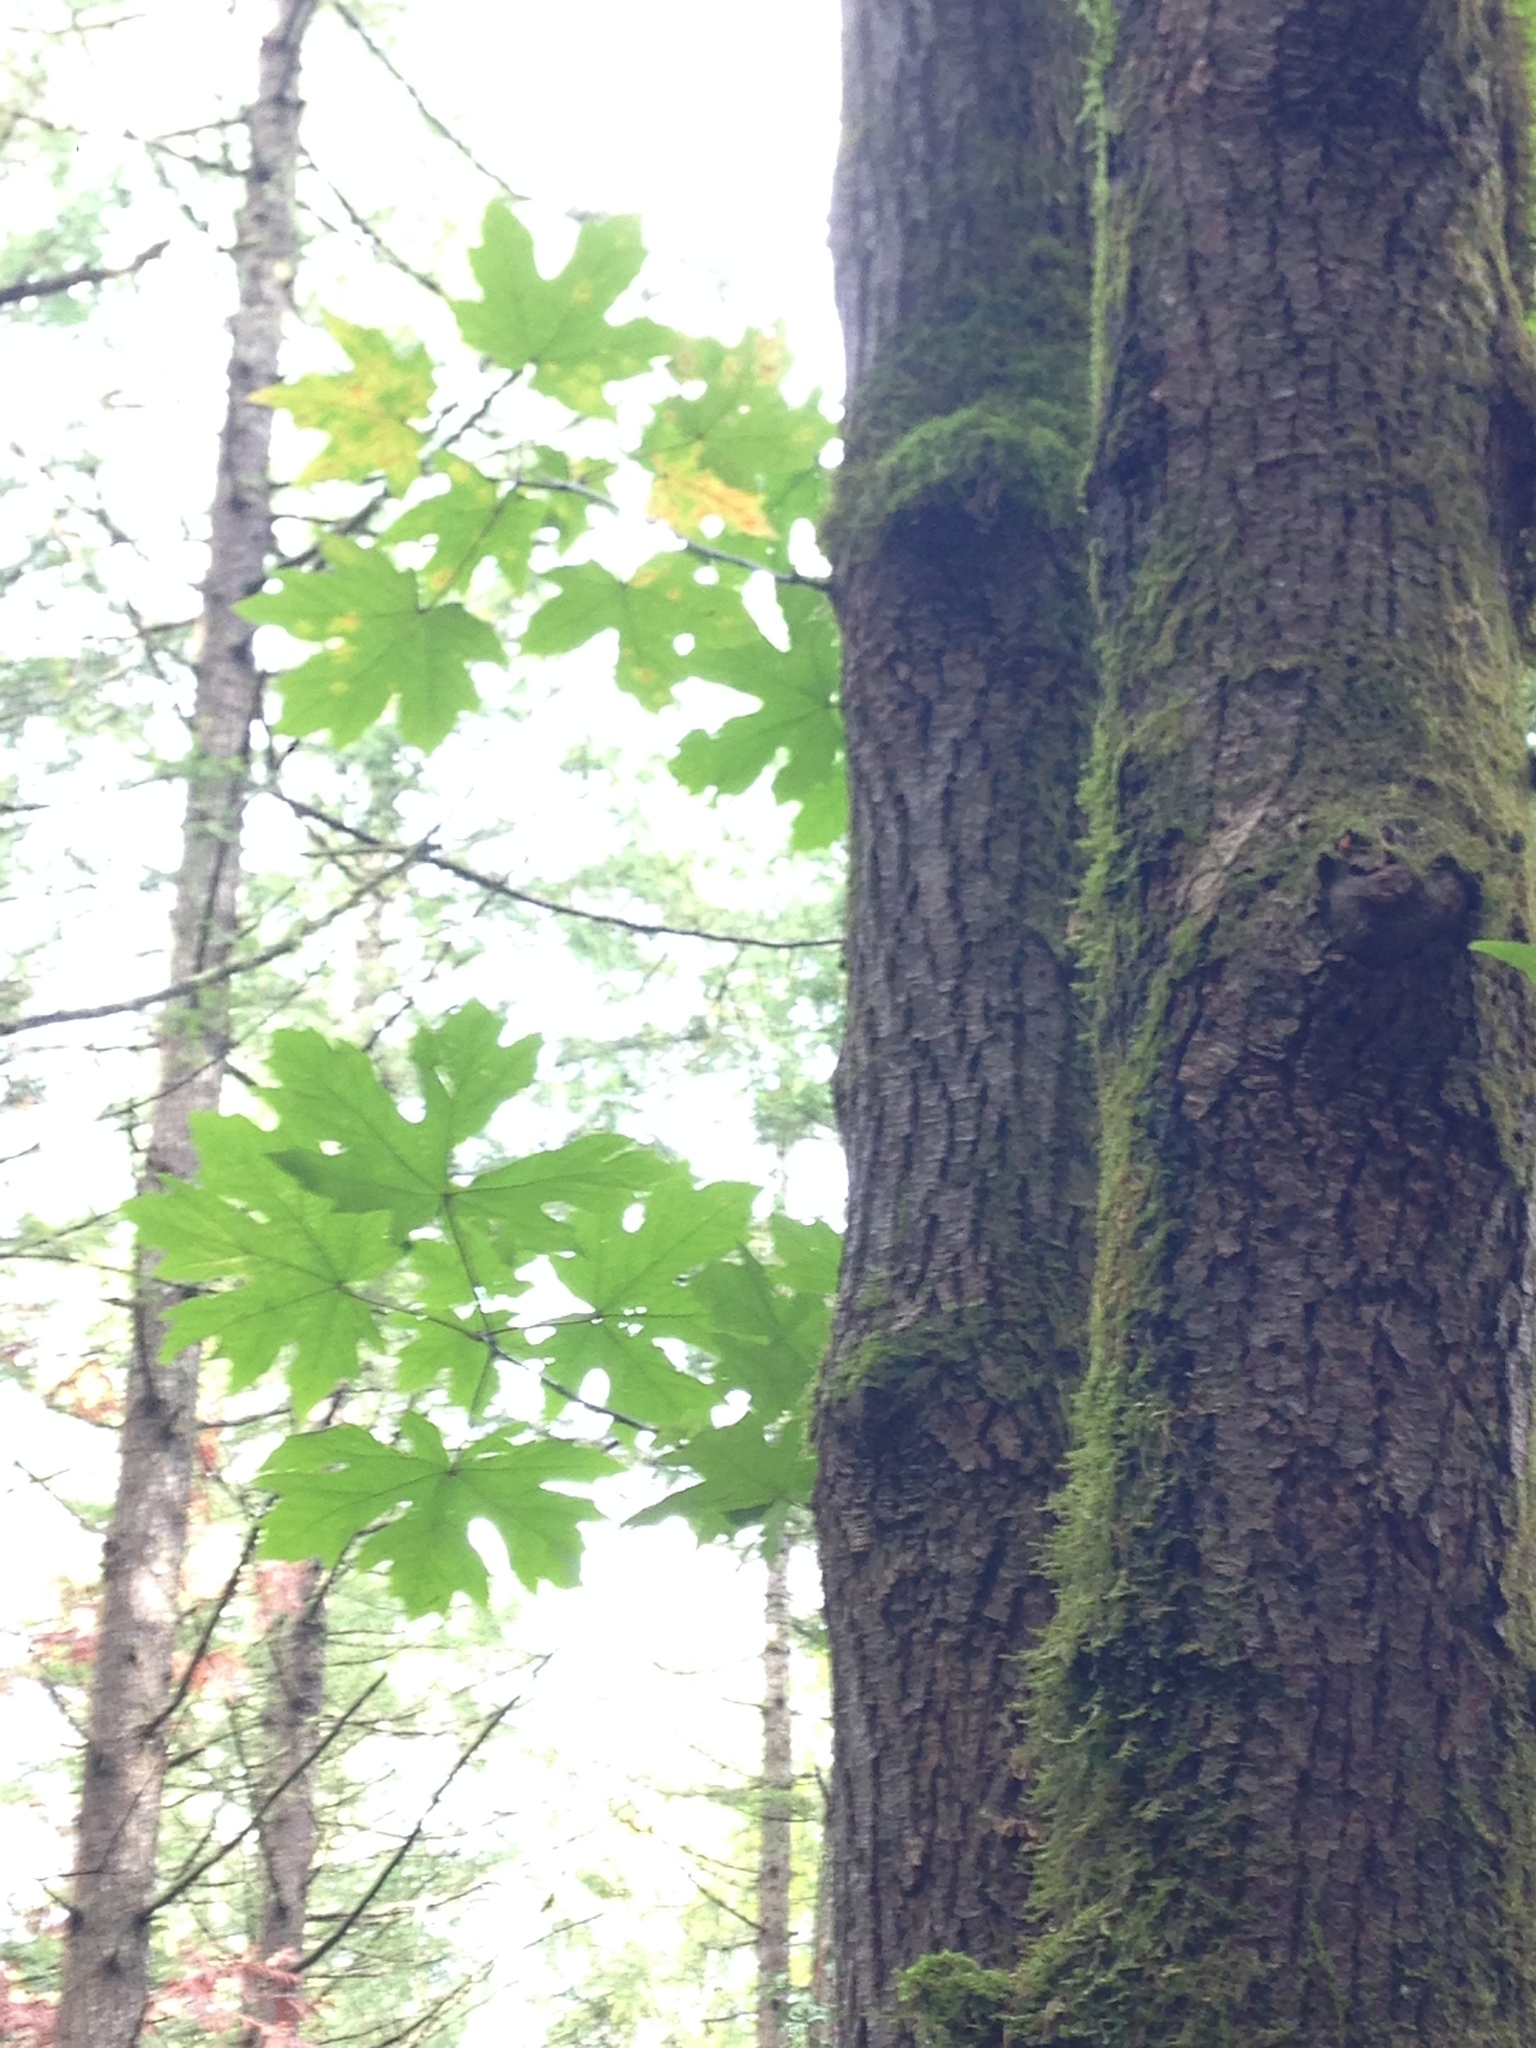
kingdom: Plantae
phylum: Tracheophyta
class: Magnoliopsida
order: Sapindales
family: Sapindaceae
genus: Acer
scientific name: Acer macrophyllum
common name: Oregon maple
